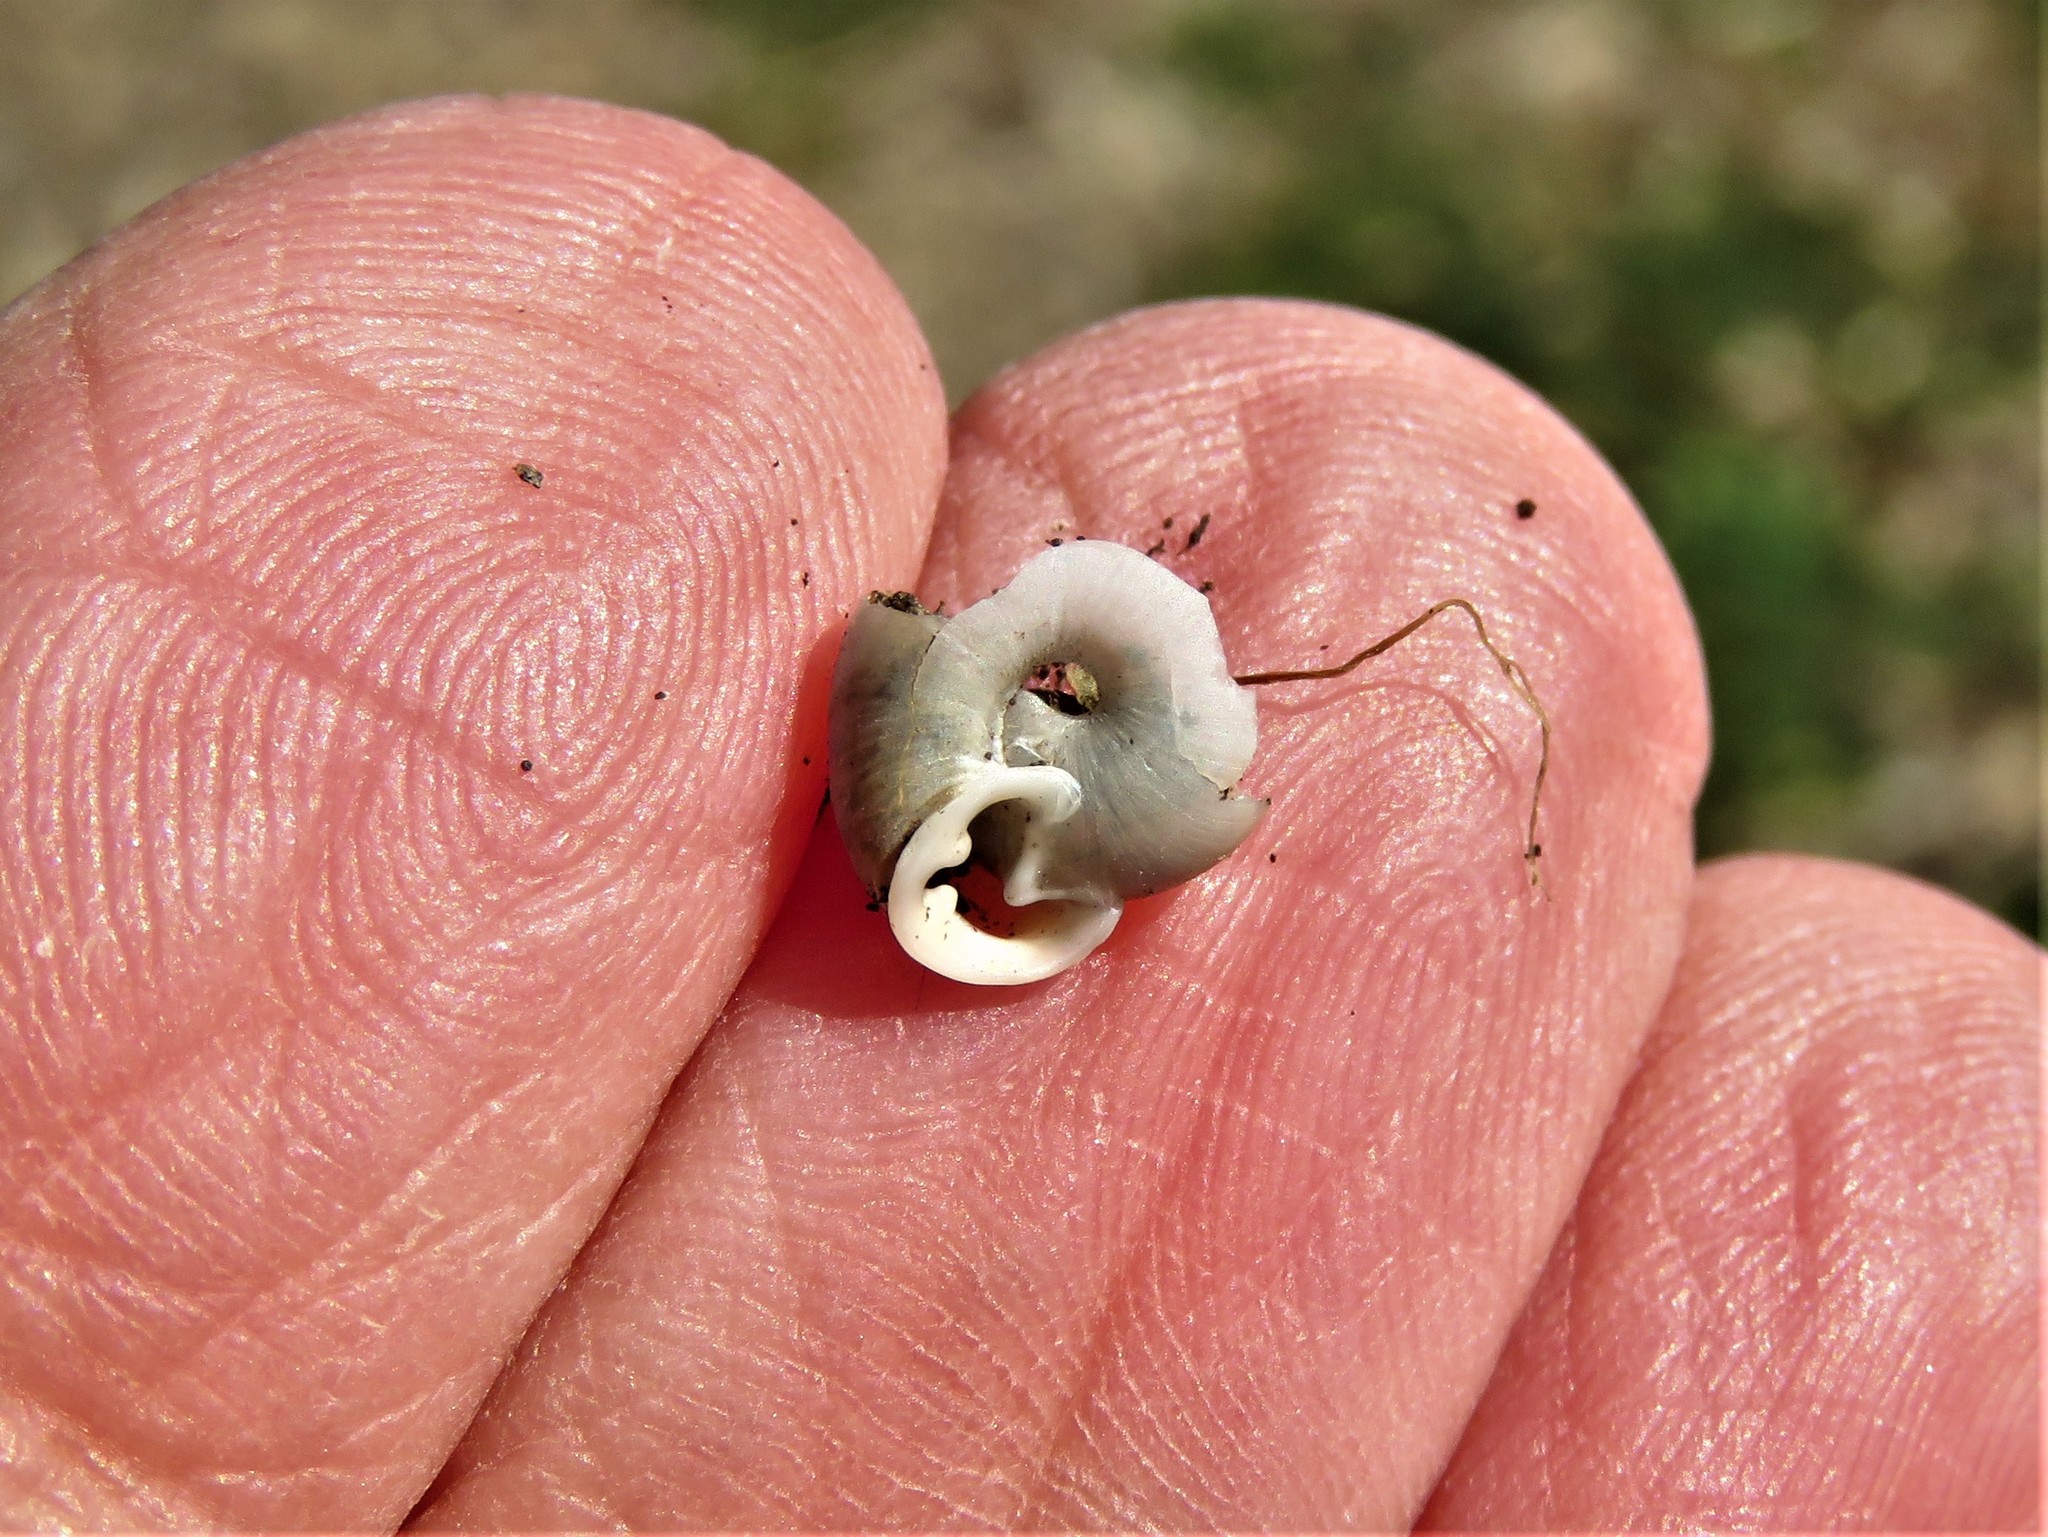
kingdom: Animalia
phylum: Mollusca
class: Gastropoda
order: Stylommatophora
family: Polygyridae
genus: Linisa
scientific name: Linisa texasiana
